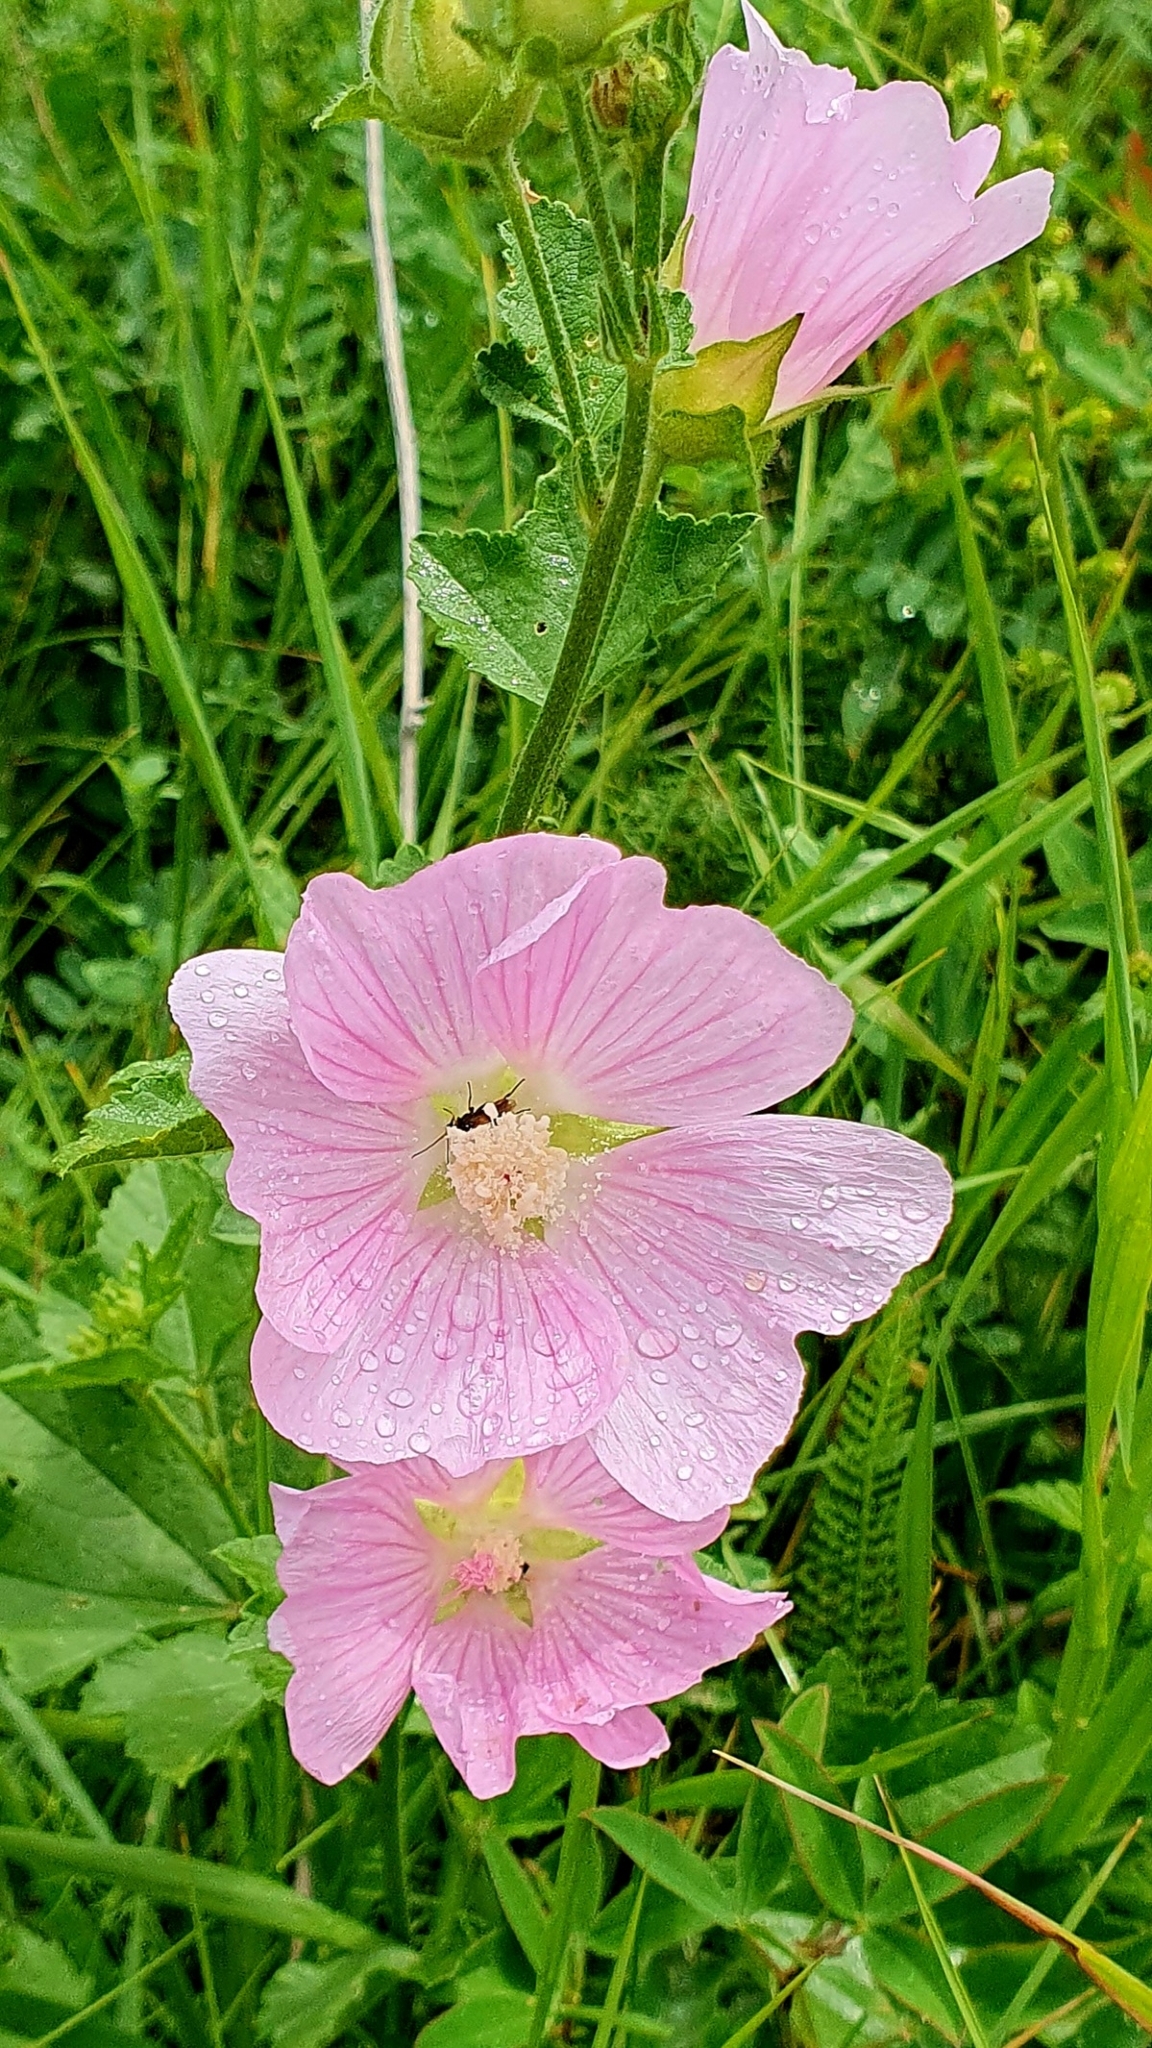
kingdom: Plantae
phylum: Tracheophyta
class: Magnoliopsida
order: Malvales
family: Malvaceae
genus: Malva
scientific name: Malva thuringiaca
